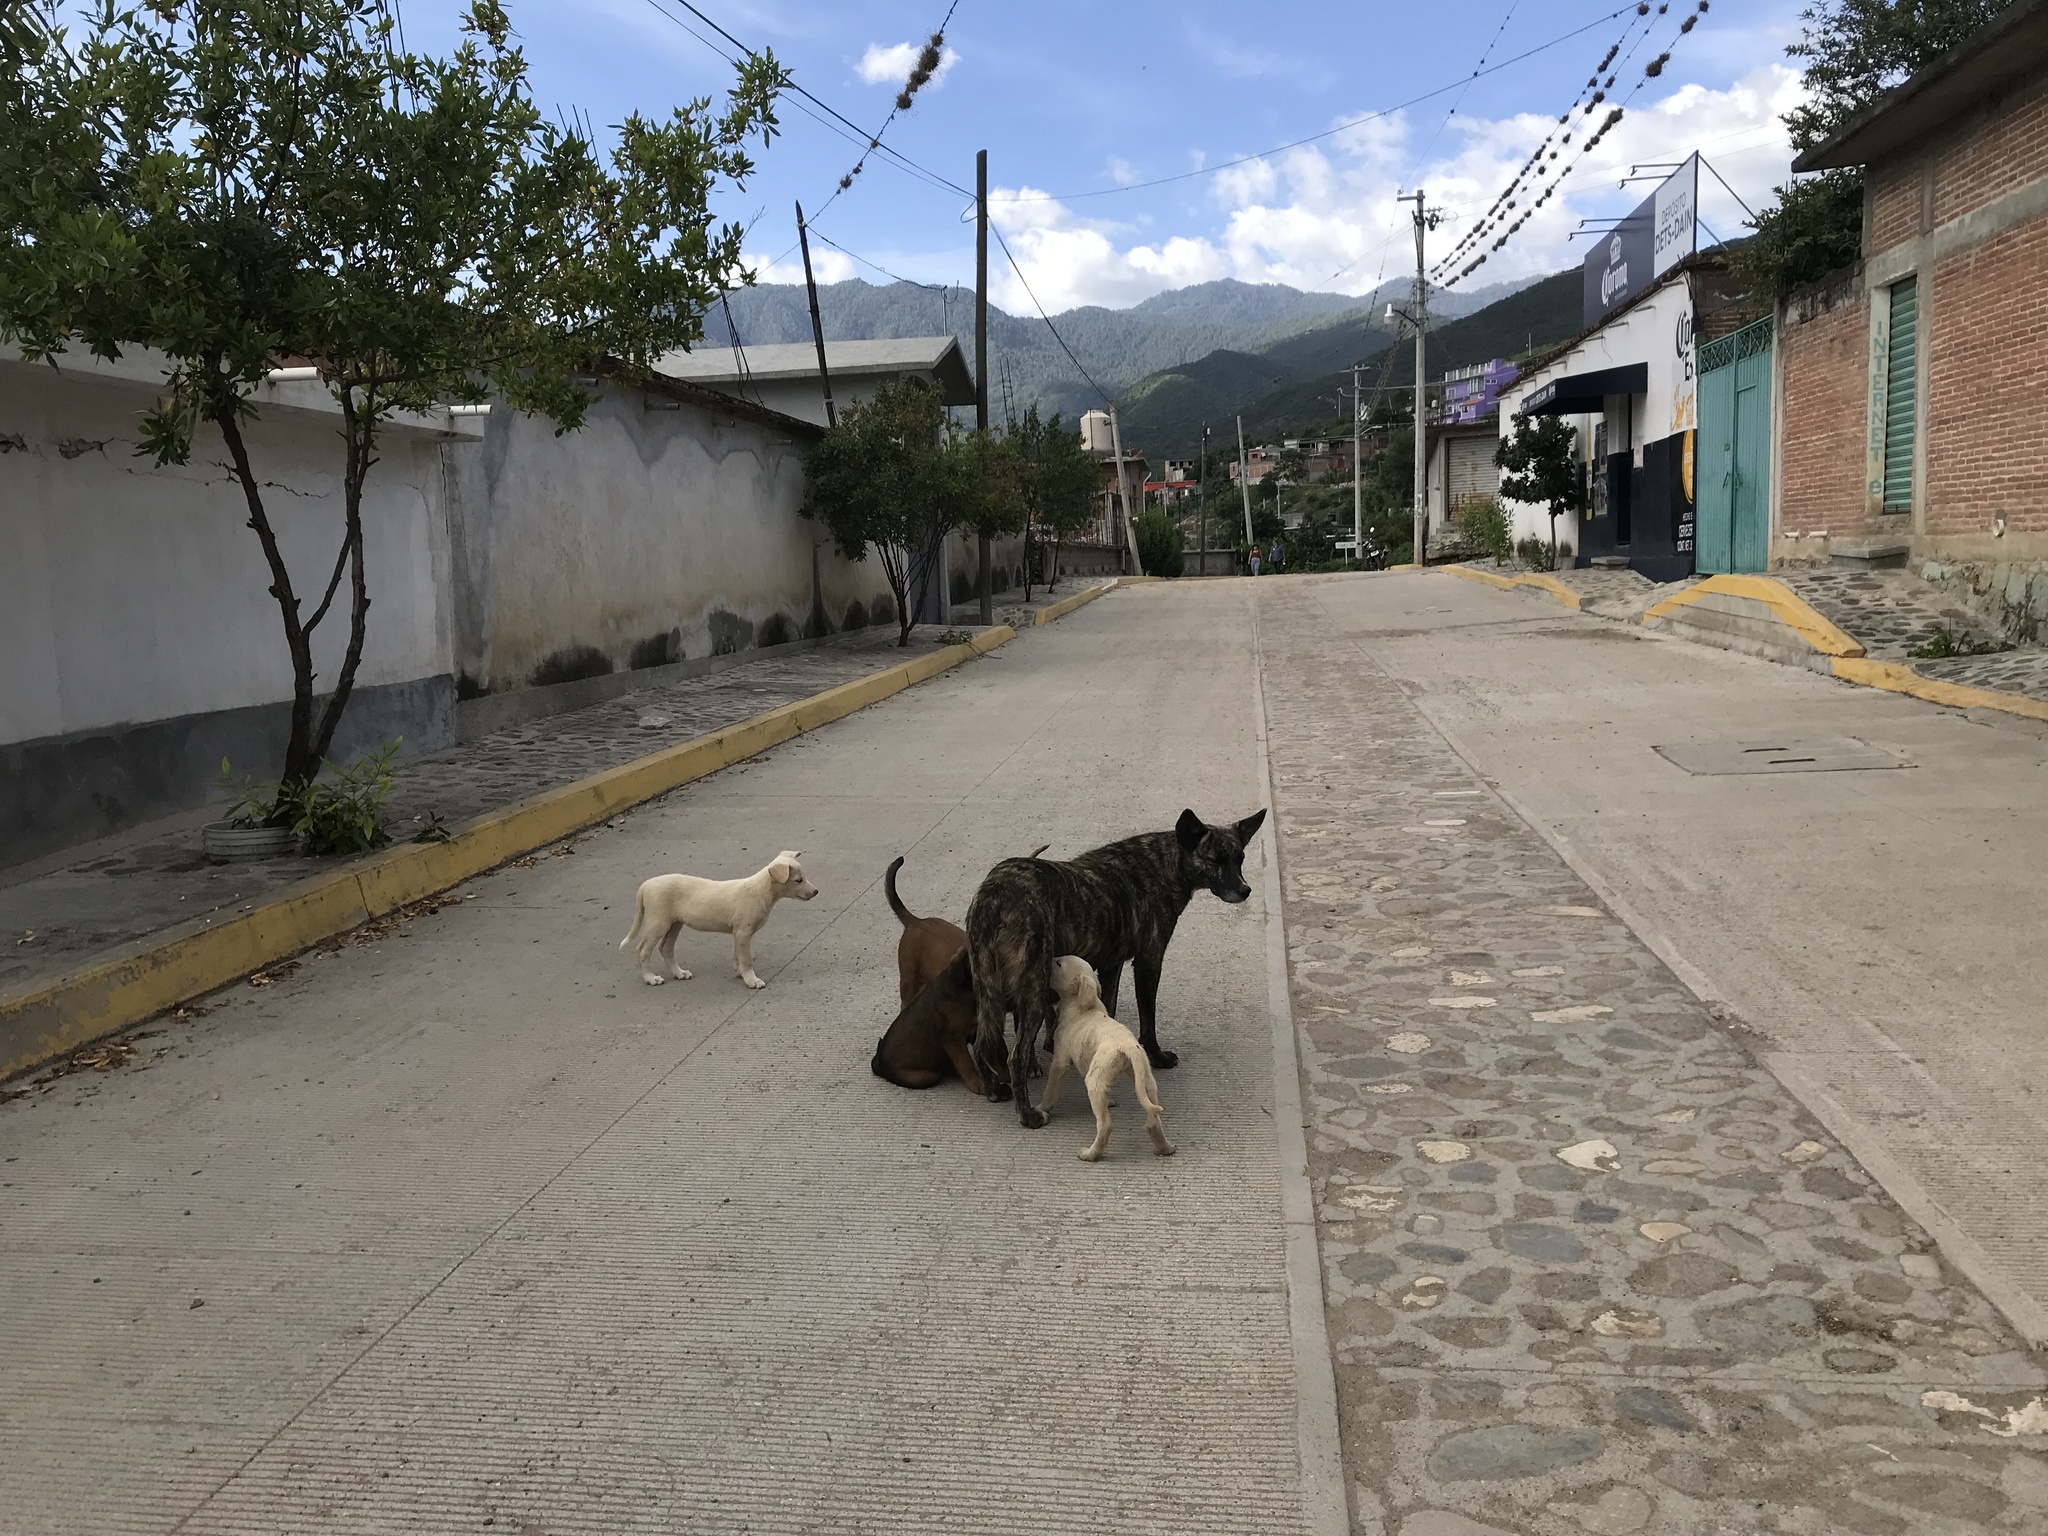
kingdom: Animalia
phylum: Chordata
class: Mammalia
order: Carnivora
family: Canidae
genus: Canis
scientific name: Canis lupus
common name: Gray wolf
